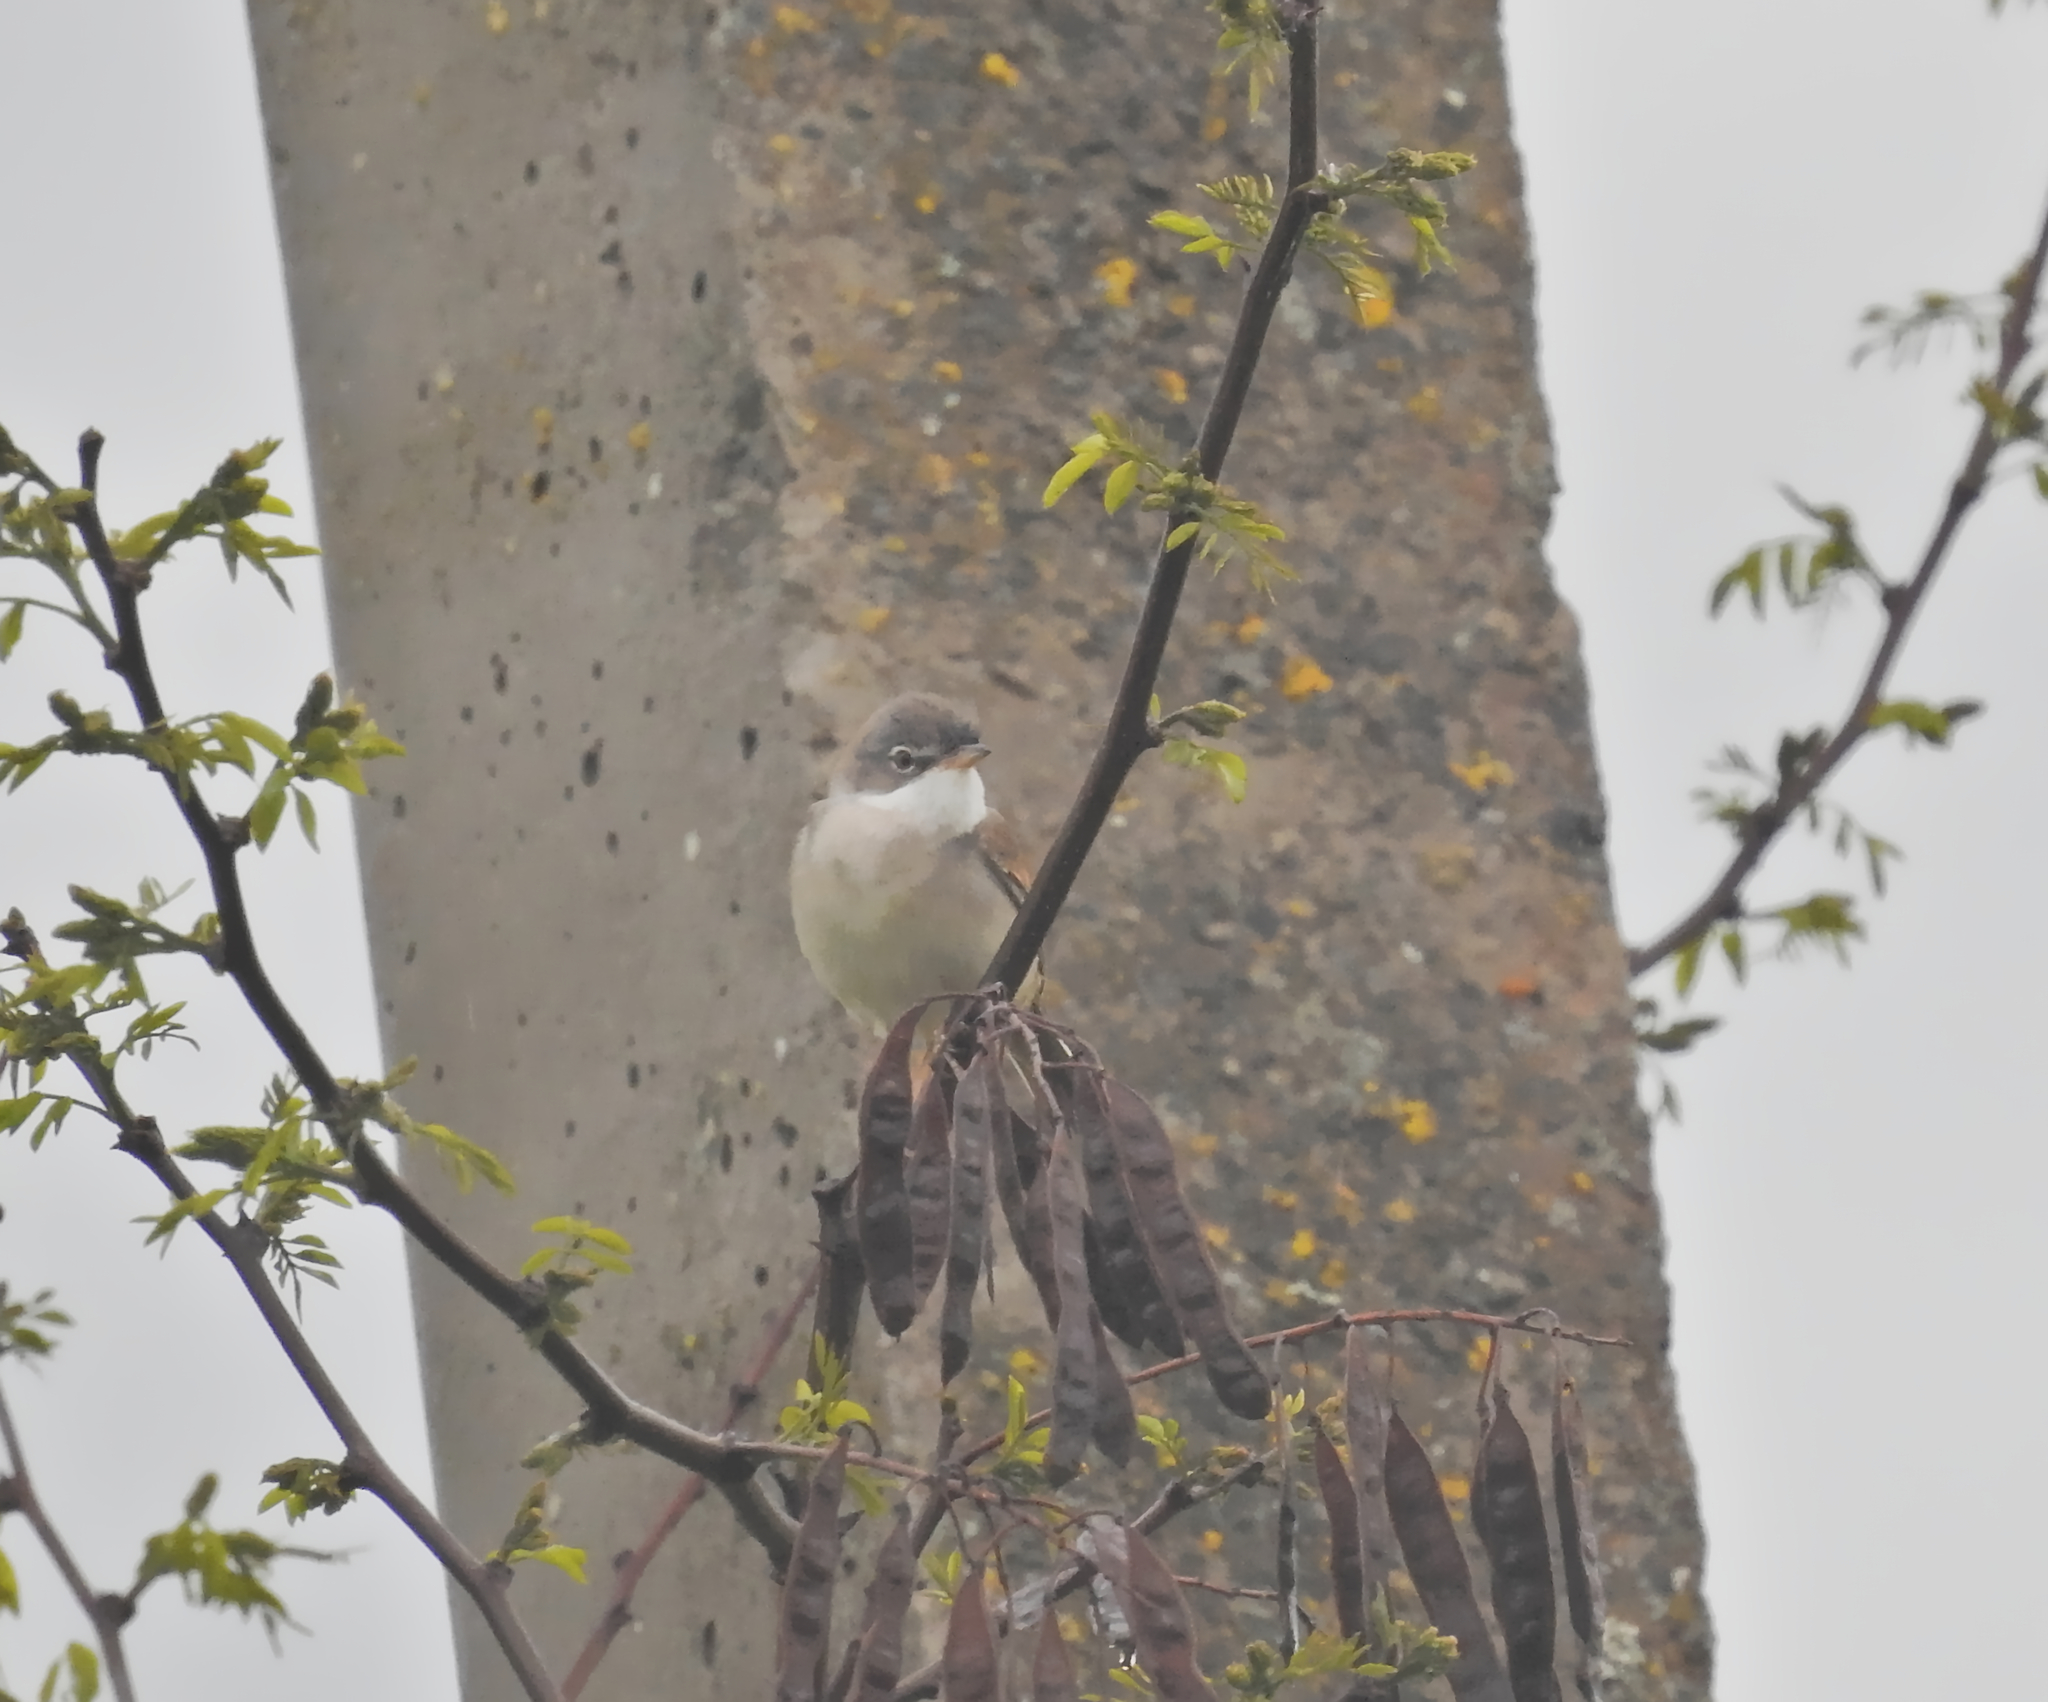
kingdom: Animalia
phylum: Chordata
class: Aves
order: Passeriformes
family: Sylviidae
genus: Sylvia
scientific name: Sylvia communis
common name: Common whitethroat
